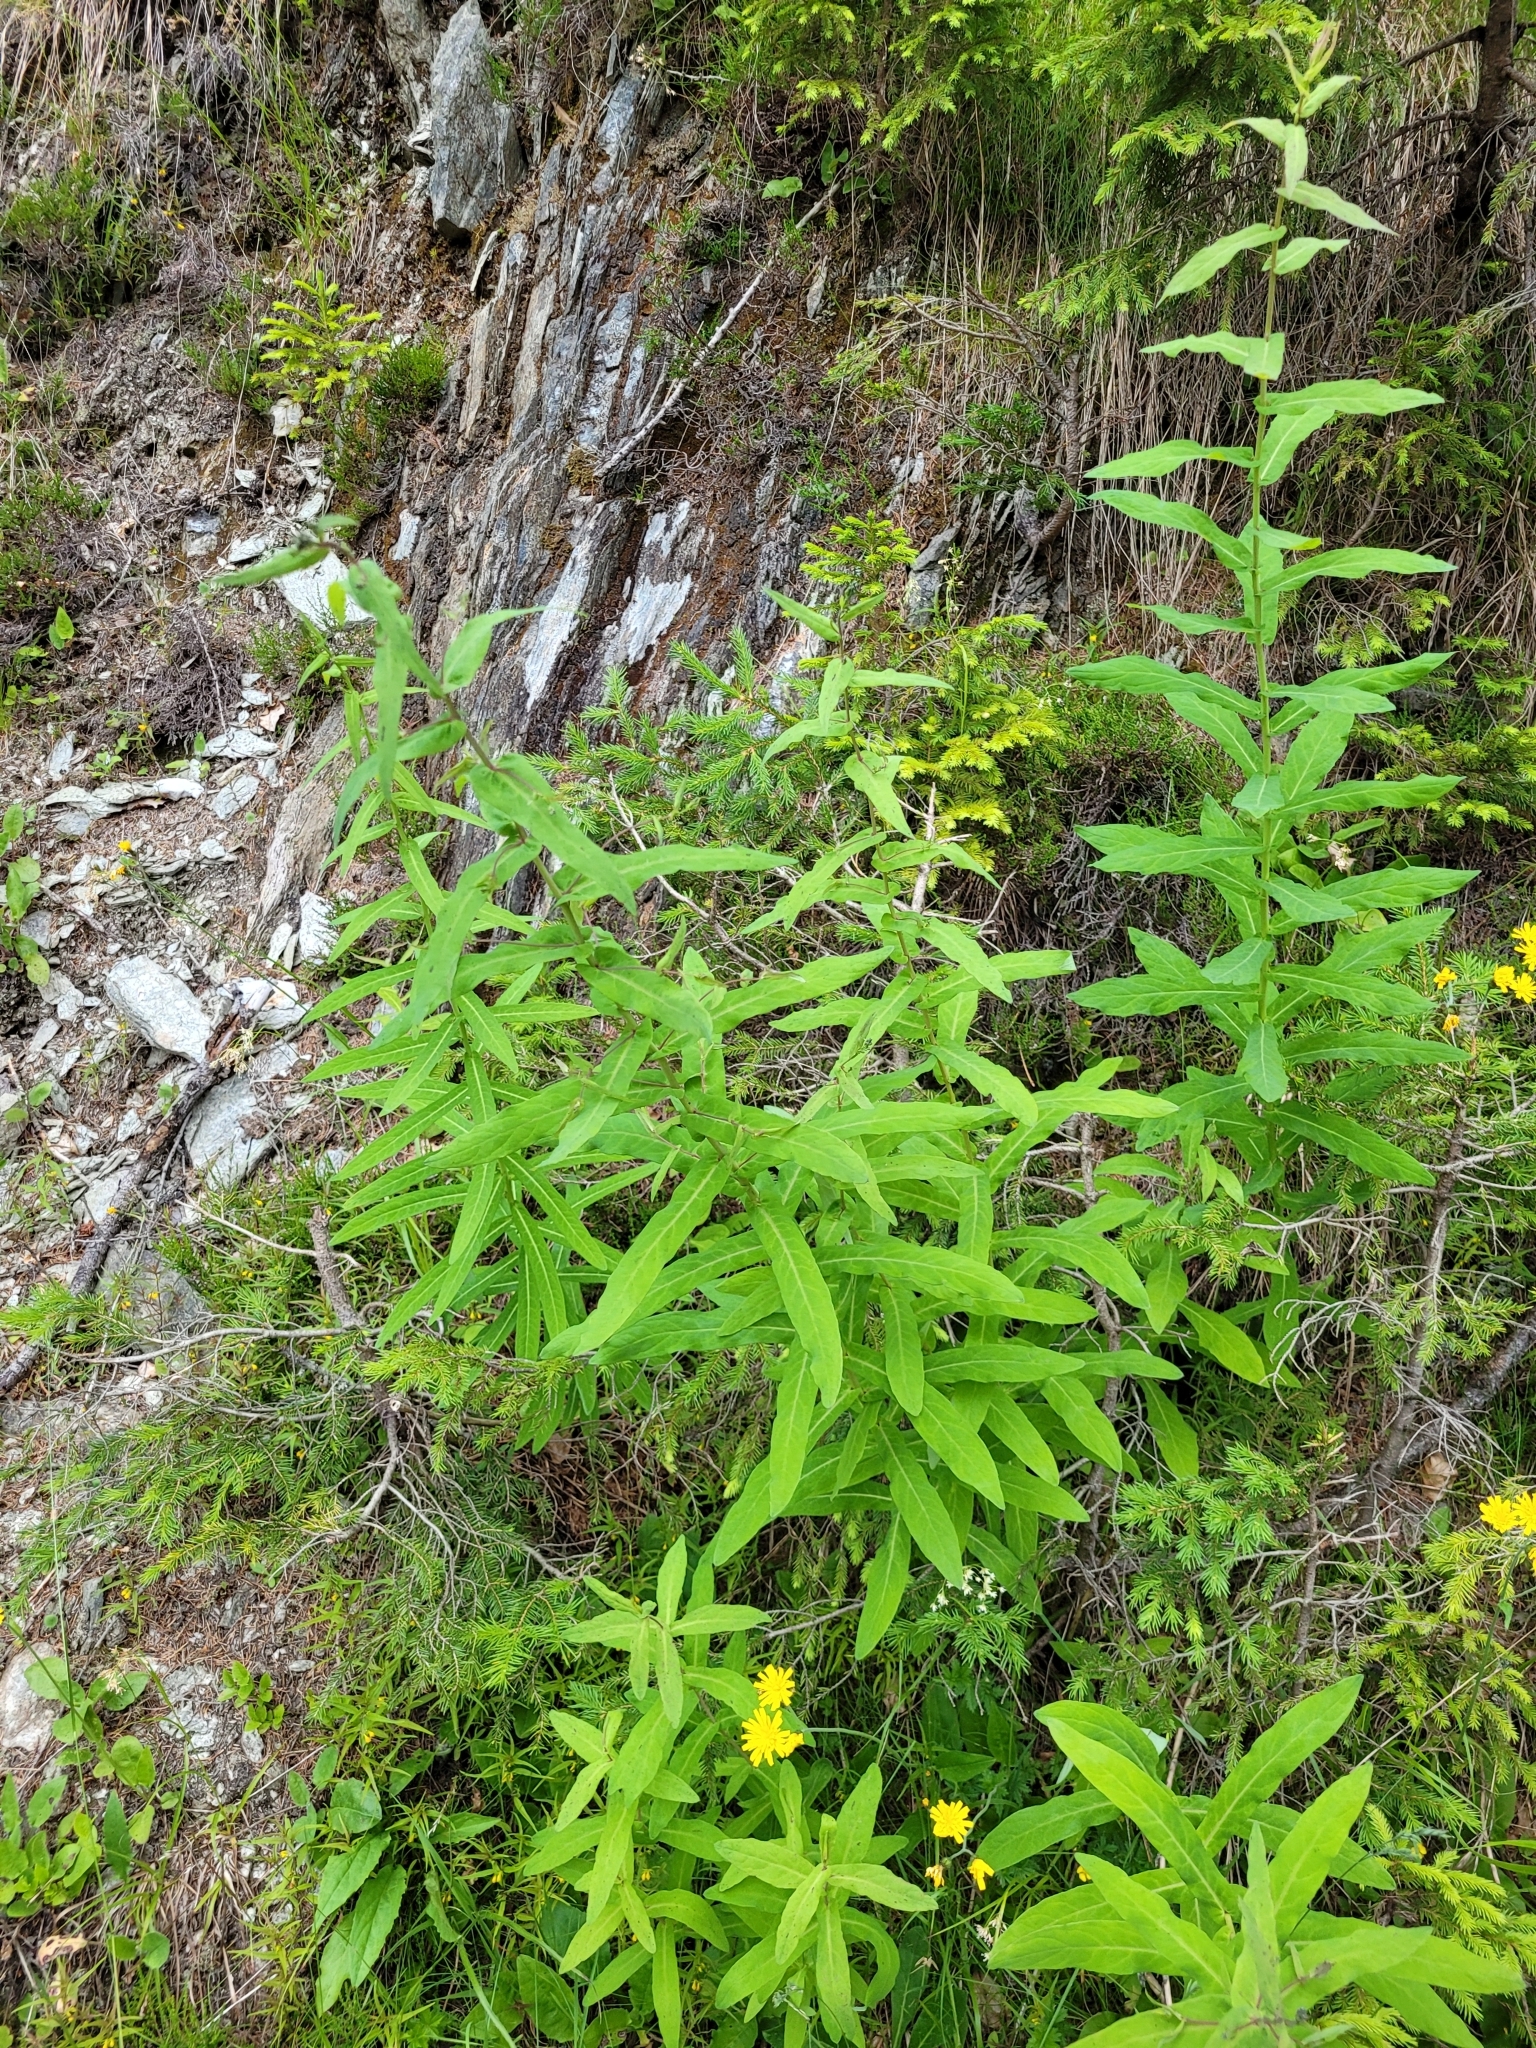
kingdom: Plantae
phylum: Tracheophyta
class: Magnoliopsida
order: Asterales
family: Asteraceae
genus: Prenanthes
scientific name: Prenanthes purpurea
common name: Purple lettuce
